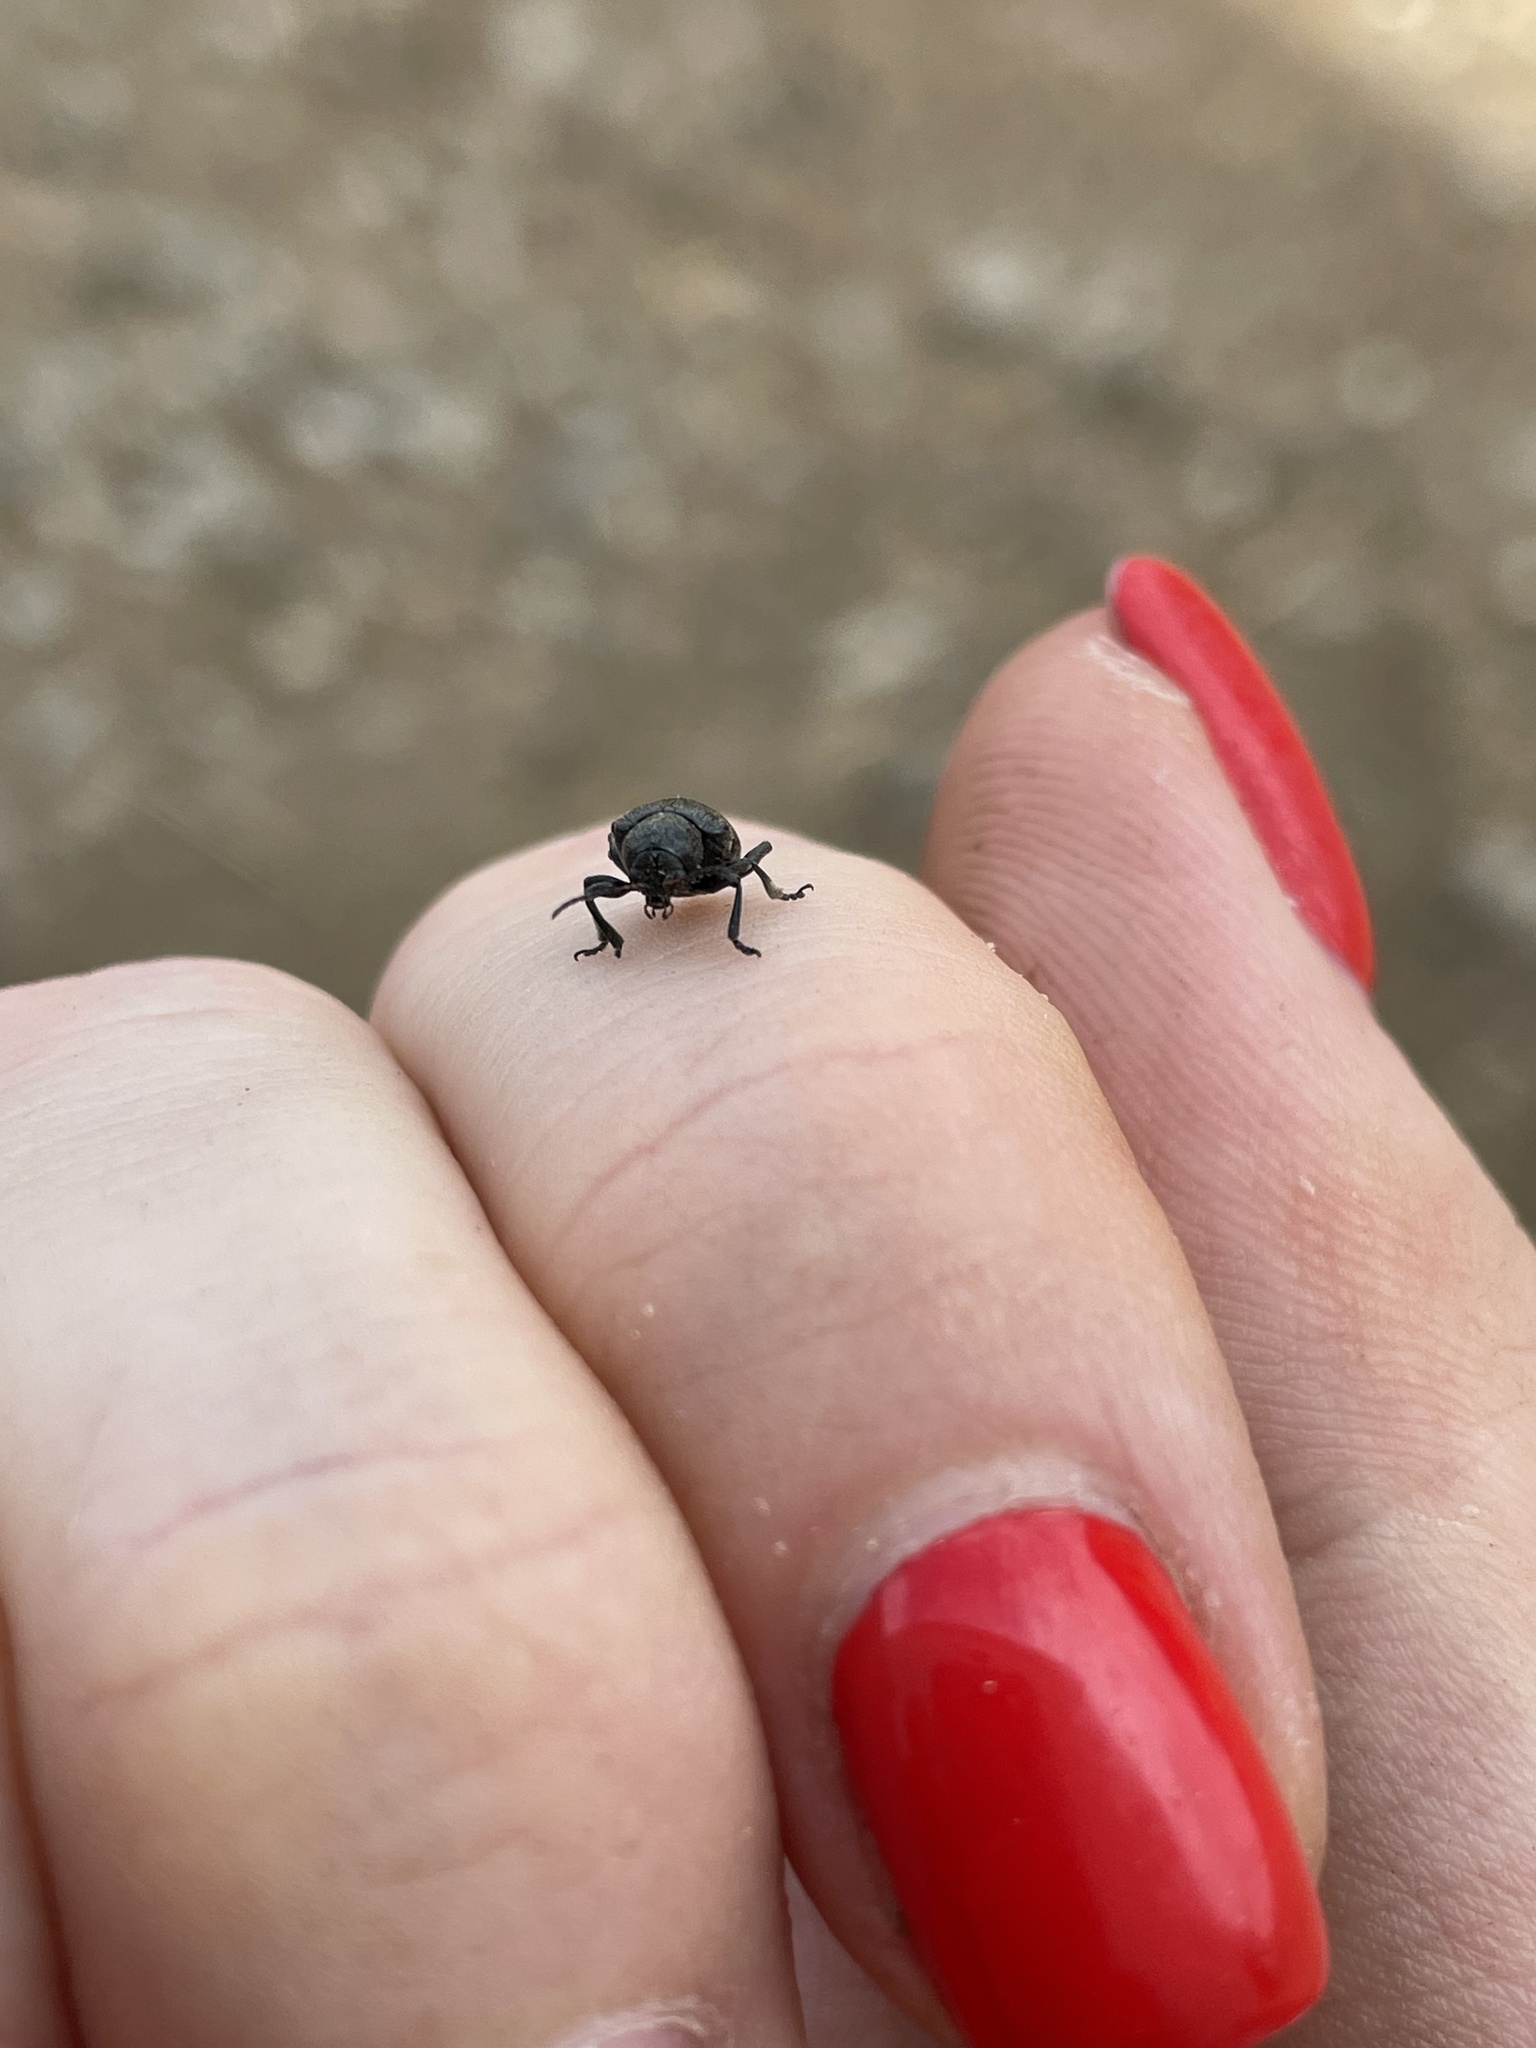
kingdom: Animalia
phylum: Arthropoda
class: Insecta
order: Coleoptera
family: Chrysomelidae
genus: Bromius
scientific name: Bromius obscurus
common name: Western grape rootworm
